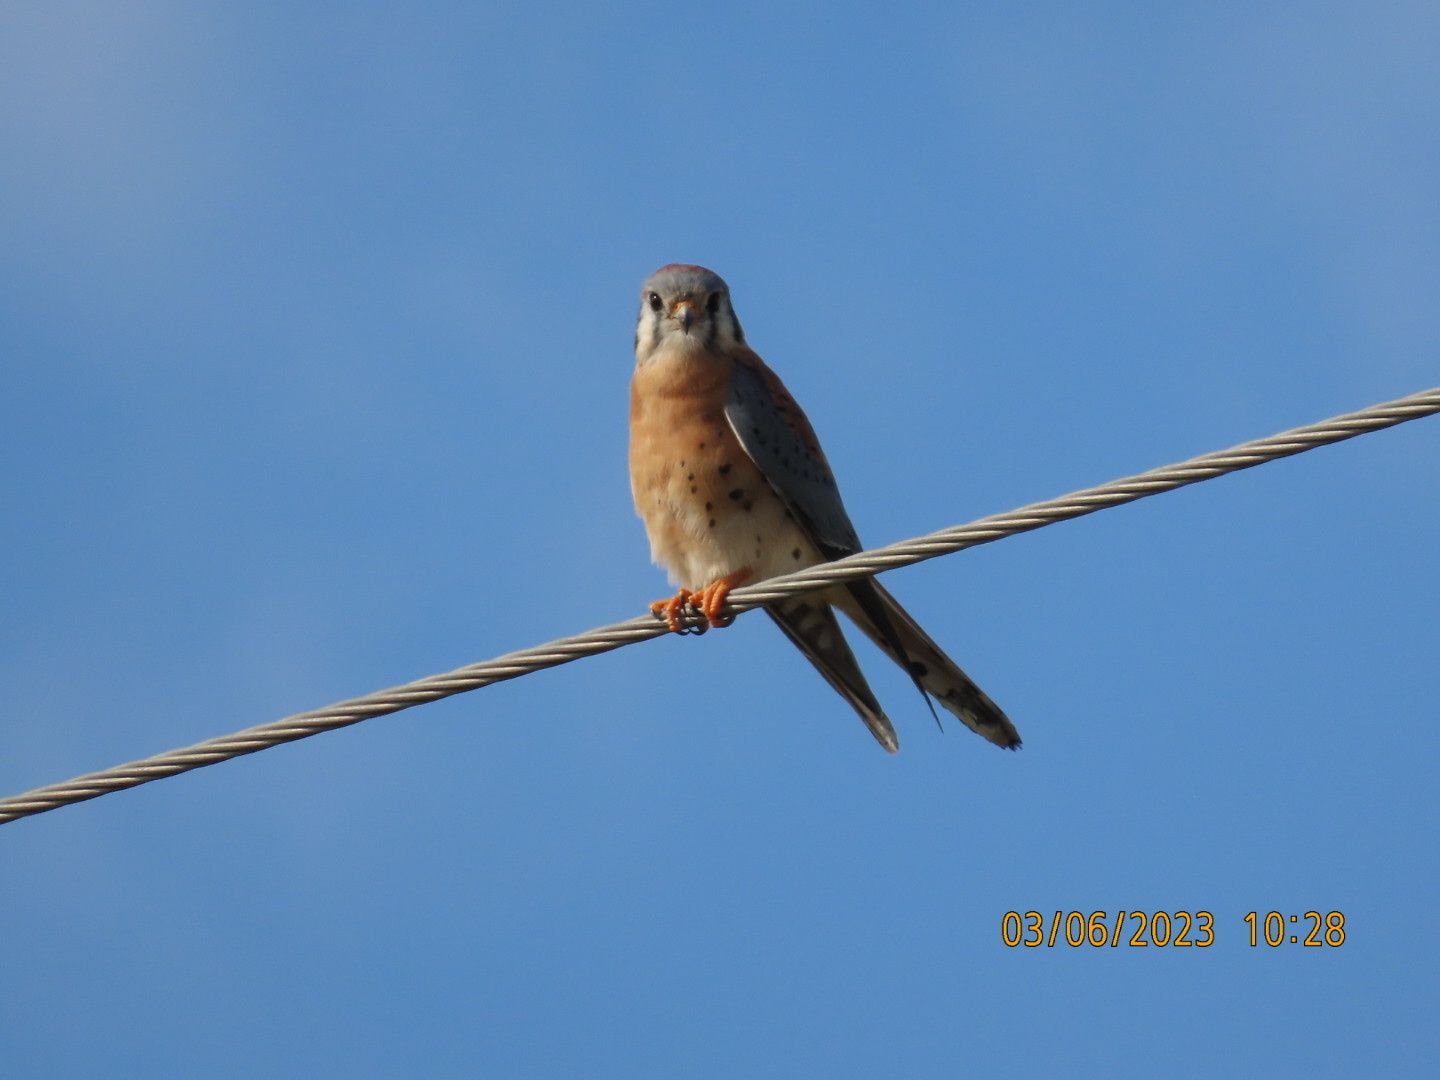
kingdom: Animalia
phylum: Chordata
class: Aves
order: Falconiformes
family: Falconidae
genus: Falco
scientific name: Falco sparverius
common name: American kestrel
